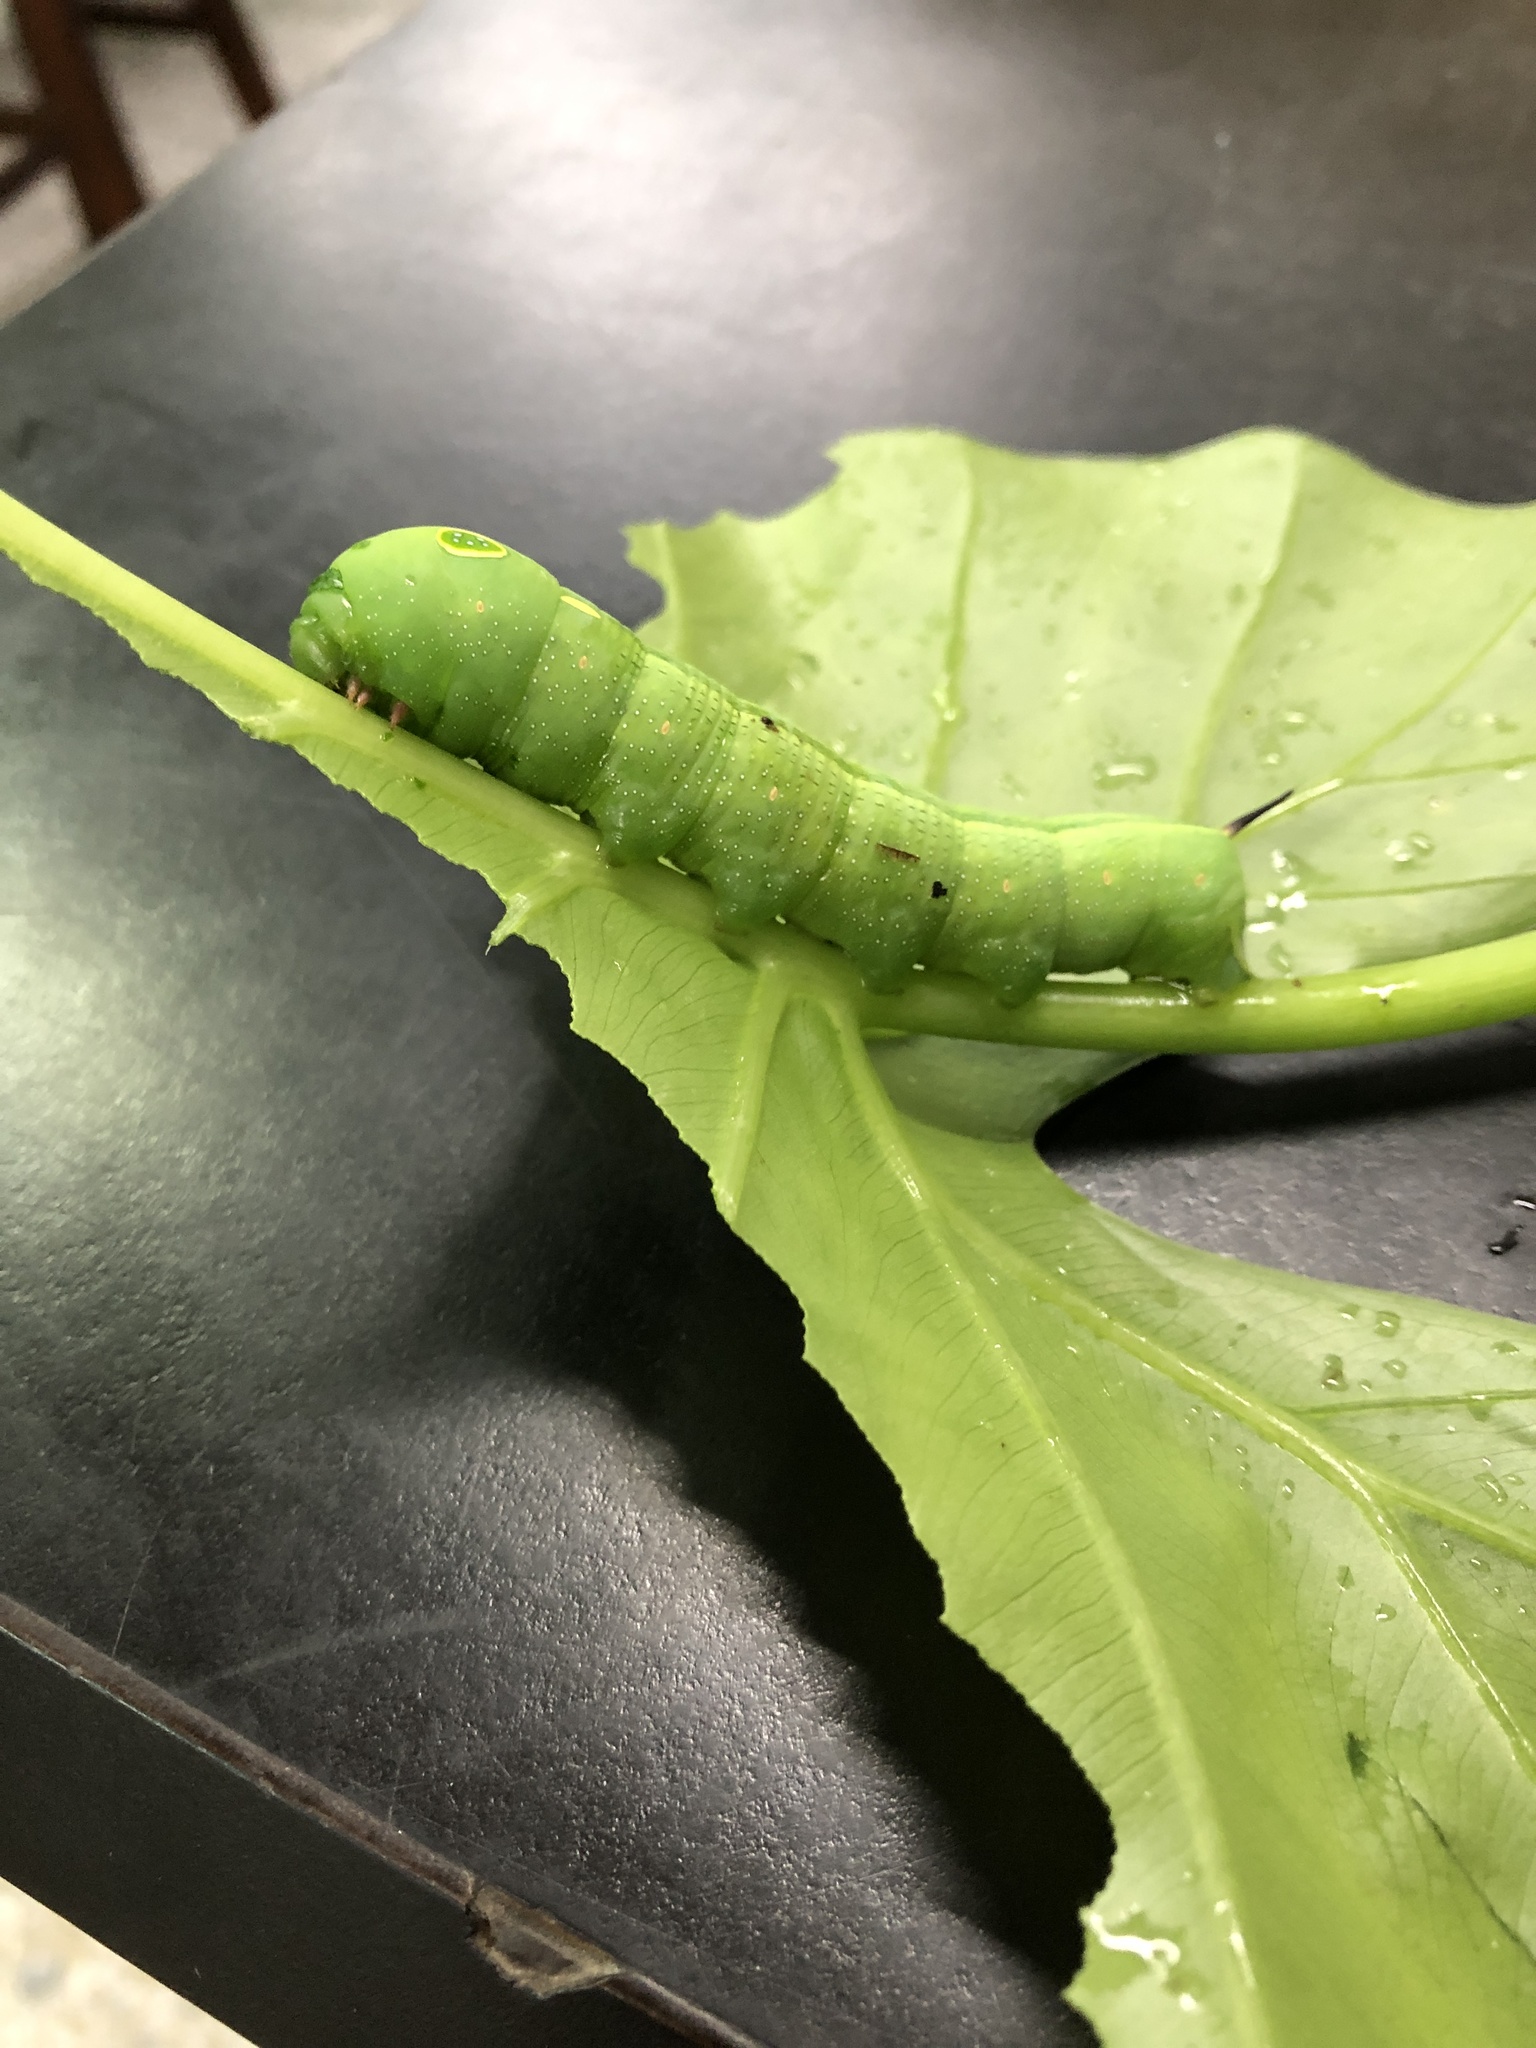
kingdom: Animalia
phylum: Arthropoda
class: Insecta
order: Lepidoptera
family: Sphingidae
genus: Hippotion
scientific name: Hippotion celerio
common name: Silver-striped hawk-moth
